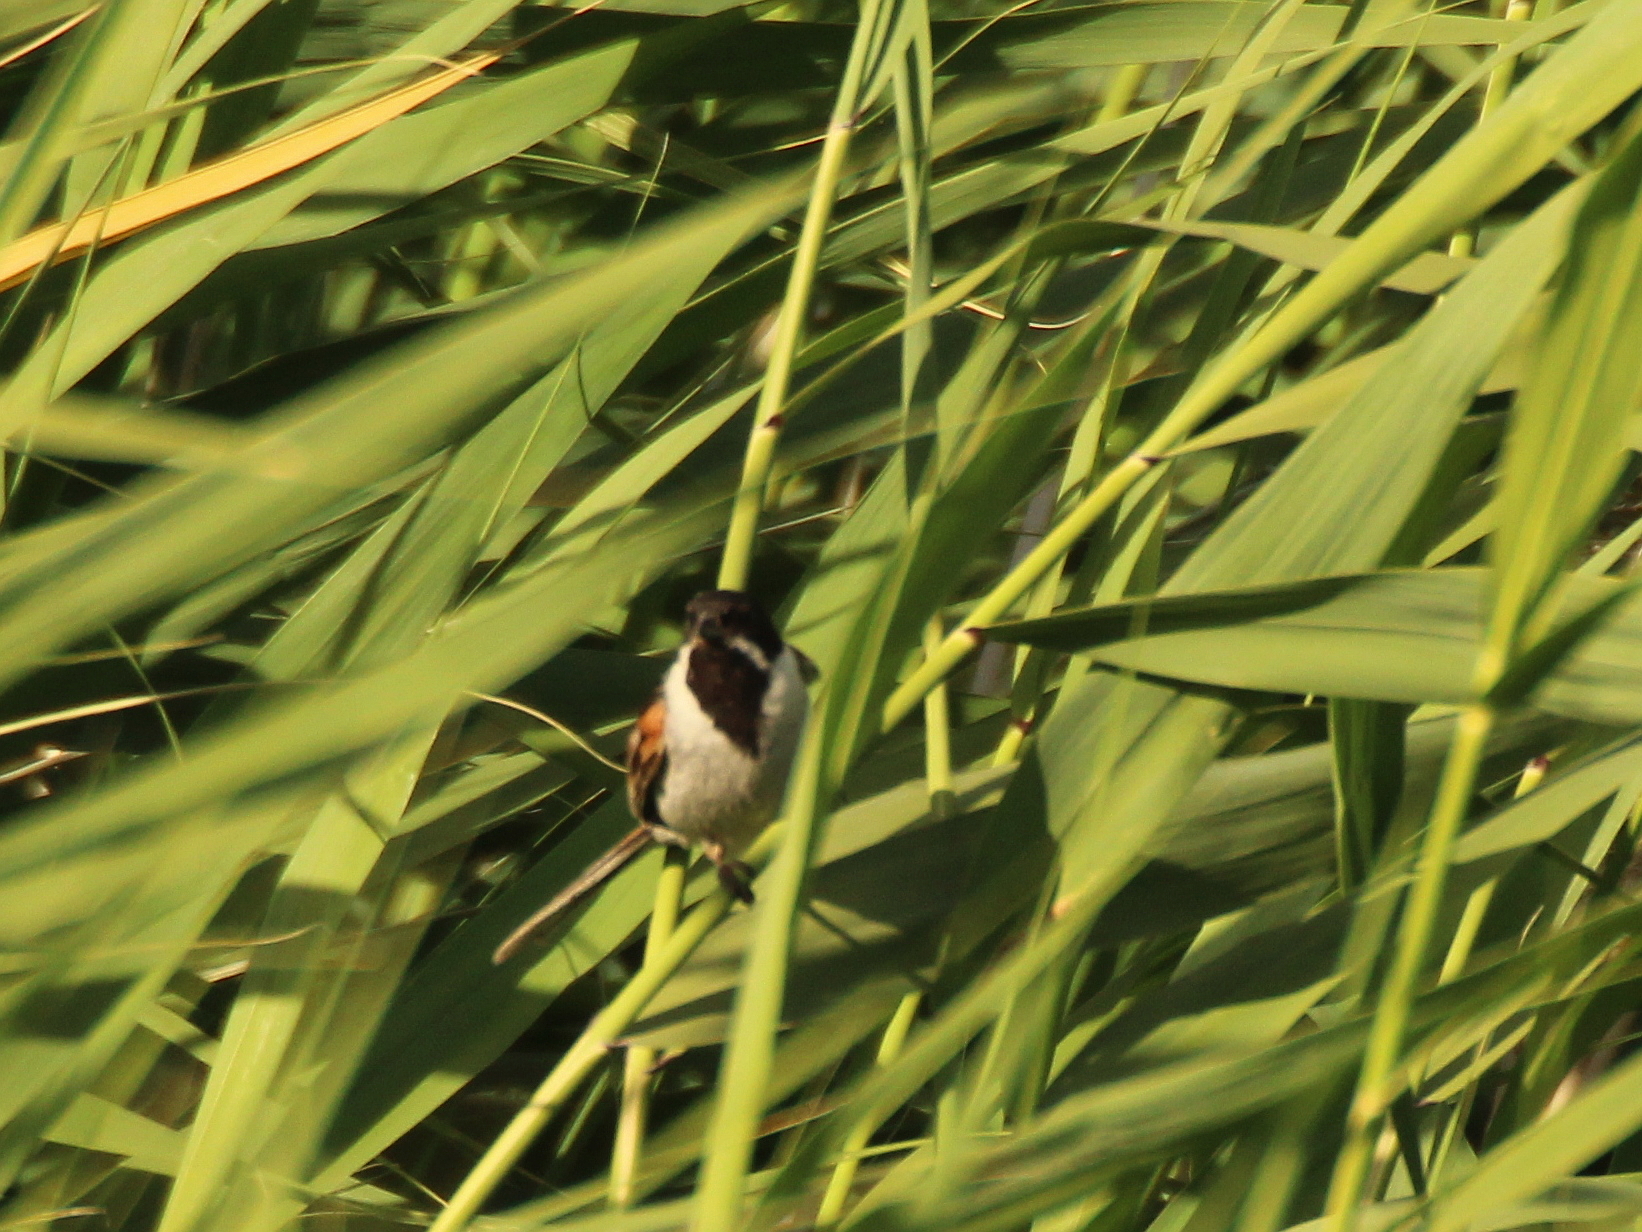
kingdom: Animalia
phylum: Chordata
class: Aves
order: Passeriformes
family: Emberizidae
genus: Emberiza
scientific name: Emberiza schoeniclus
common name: Reed bunting
